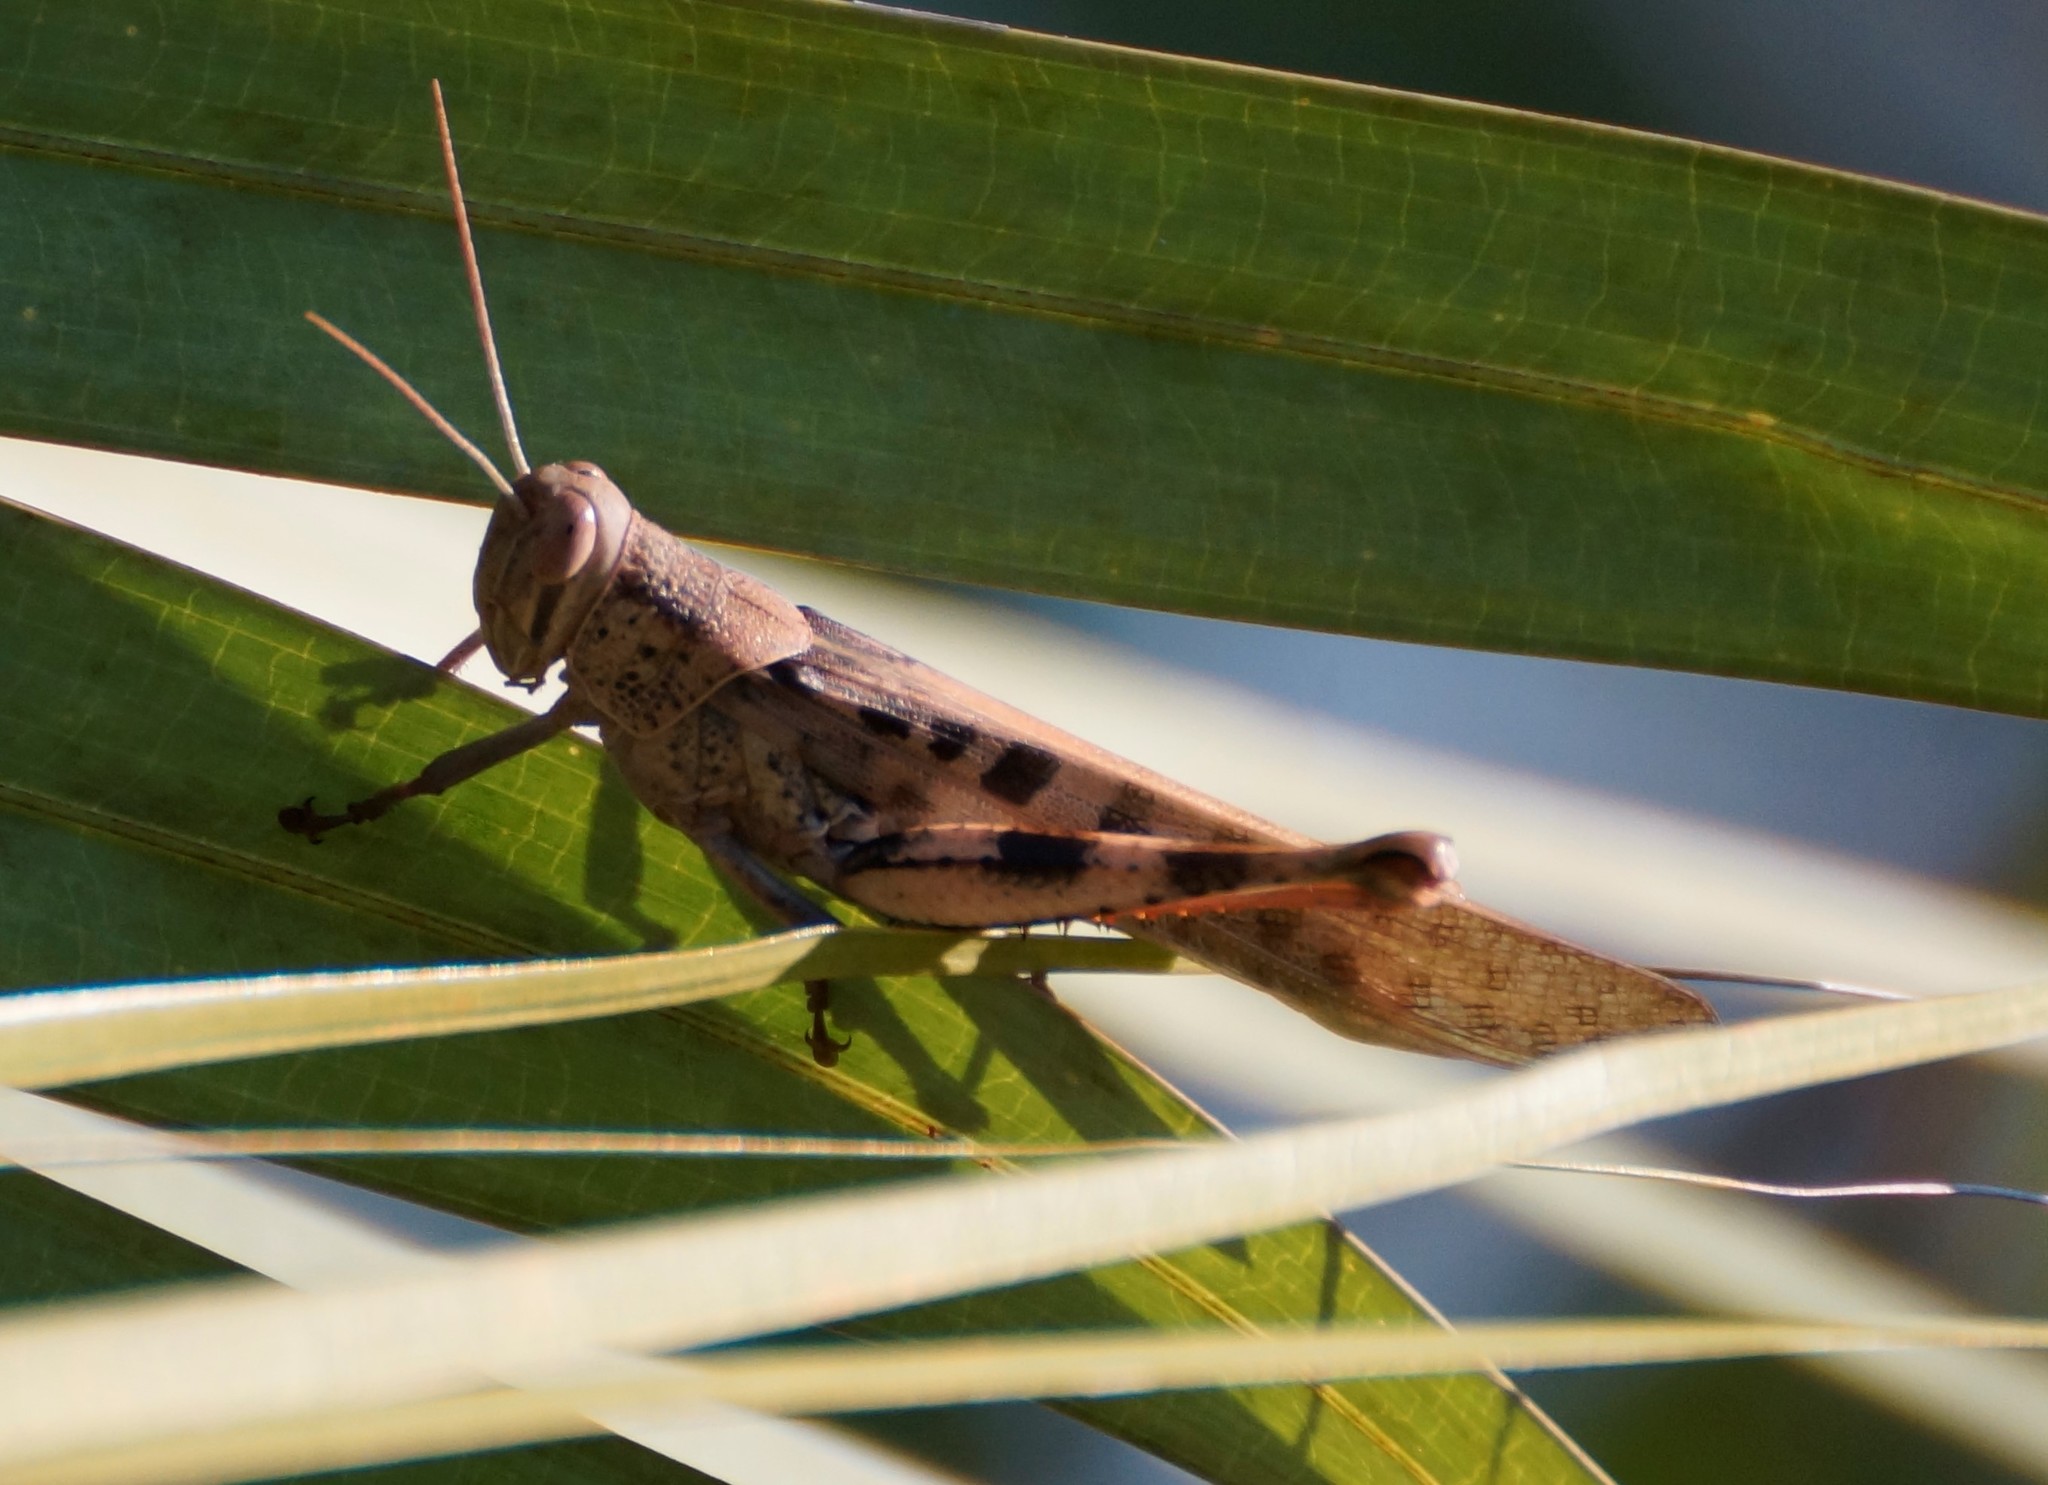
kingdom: Animalia
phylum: Arthropoda
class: Insecta
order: Orthoptera
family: Acrididae
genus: Austracris
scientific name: Austracris basalis
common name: Spotted spur-throated locust
